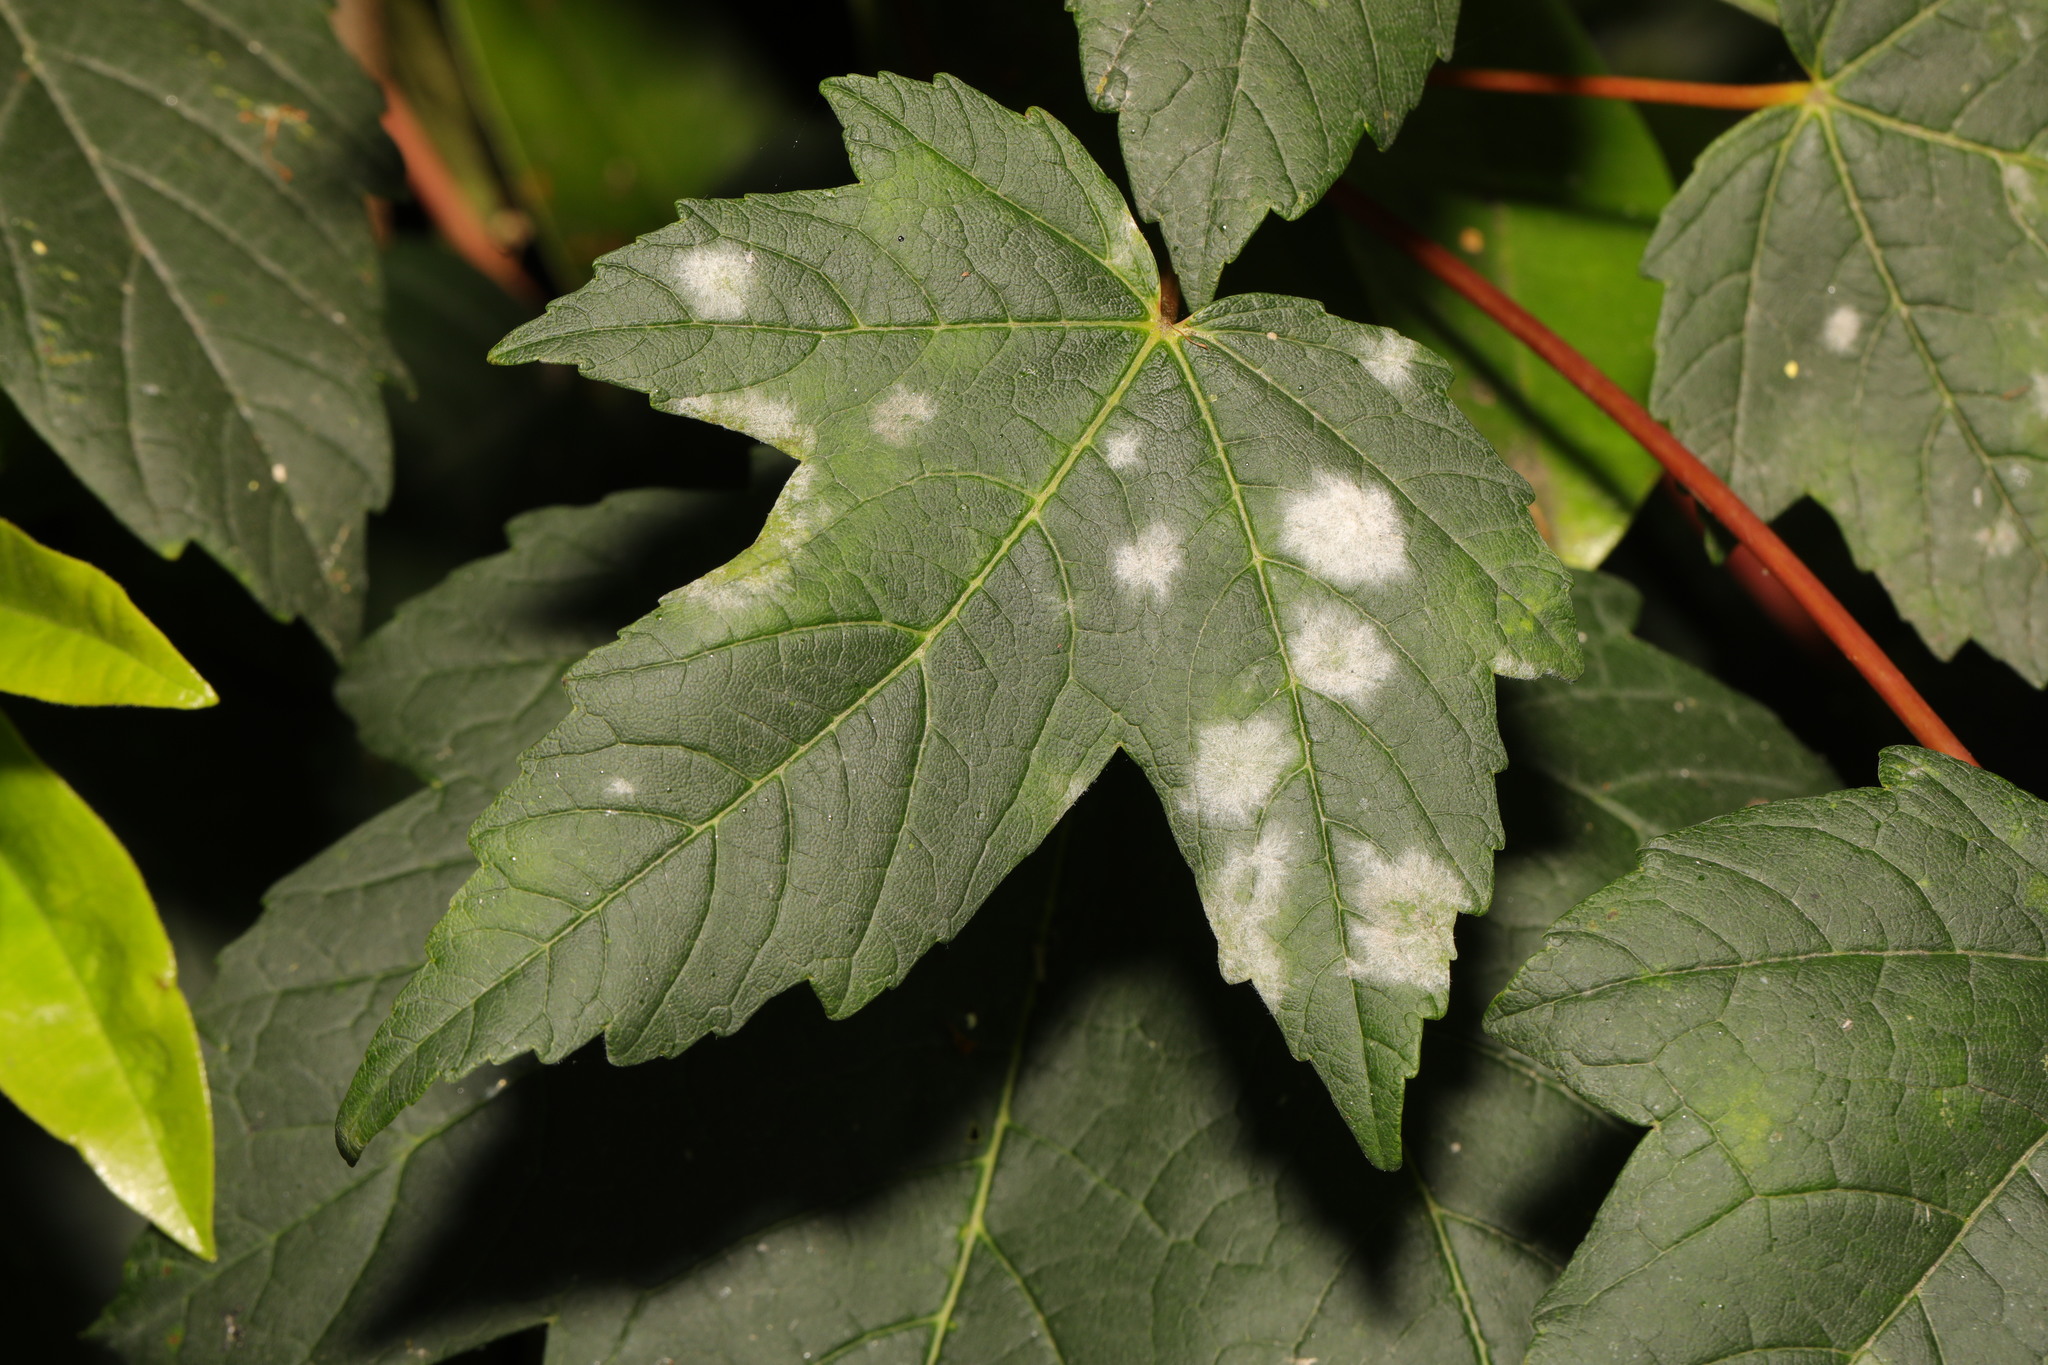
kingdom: Fungi
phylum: Ascomycota
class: Leotiomycetes
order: Helotiales
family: Erysiphaceae
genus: Sawadaea
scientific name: Sawadaea bicornis
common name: Maple mildew
